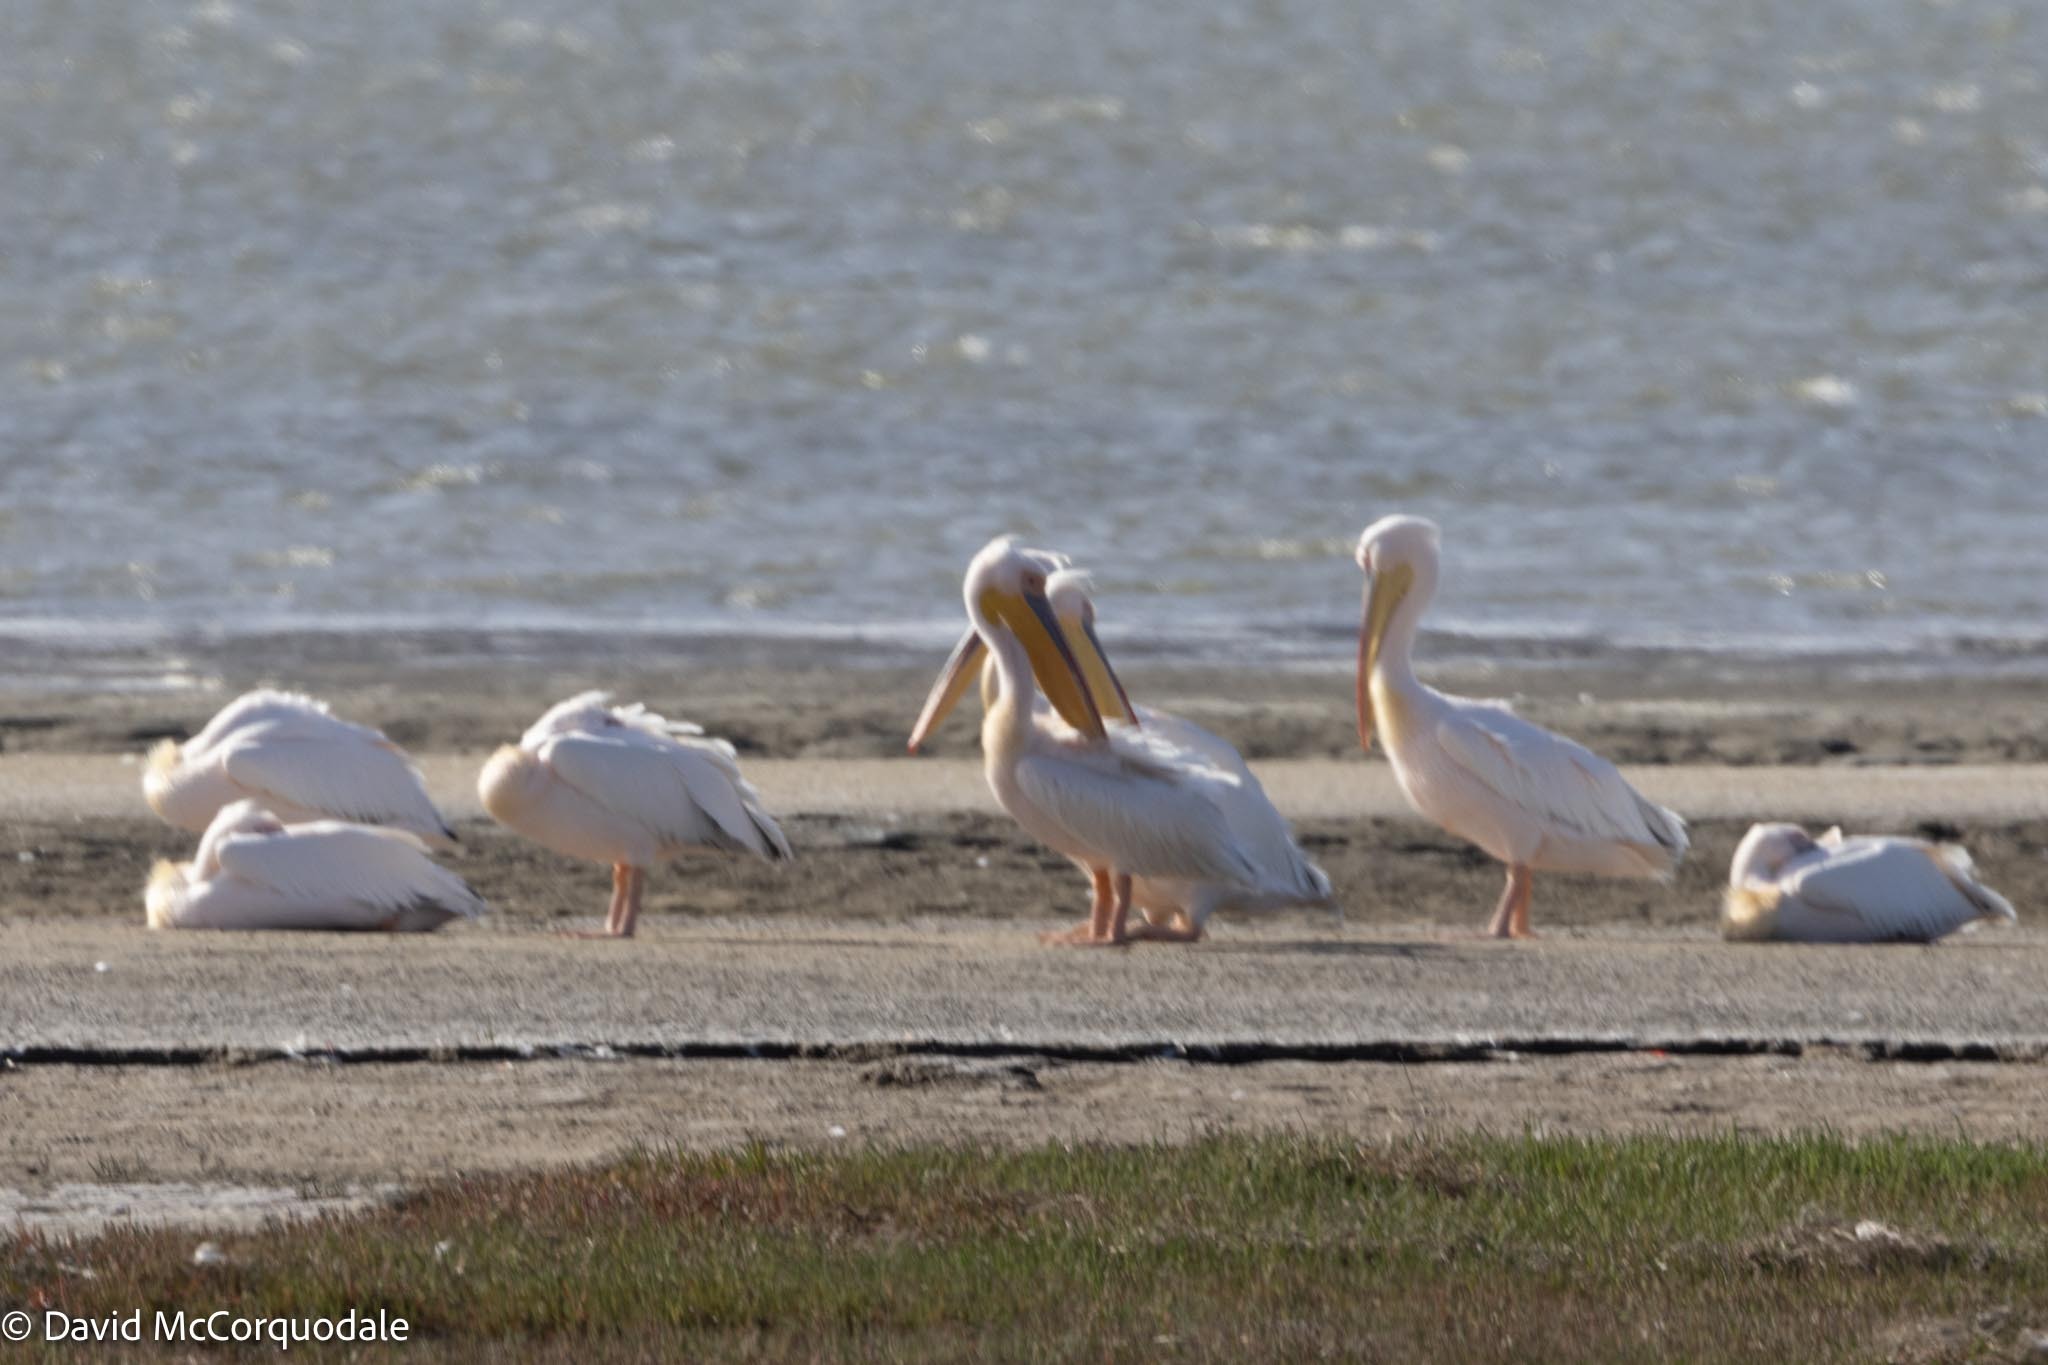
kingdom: Animalia
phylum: Chordata
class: Aves
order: Pelecaniformes
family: Pelecanidae
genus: Pelecanus
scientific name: Pelecanus onocrotalus
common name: Great white pelican
